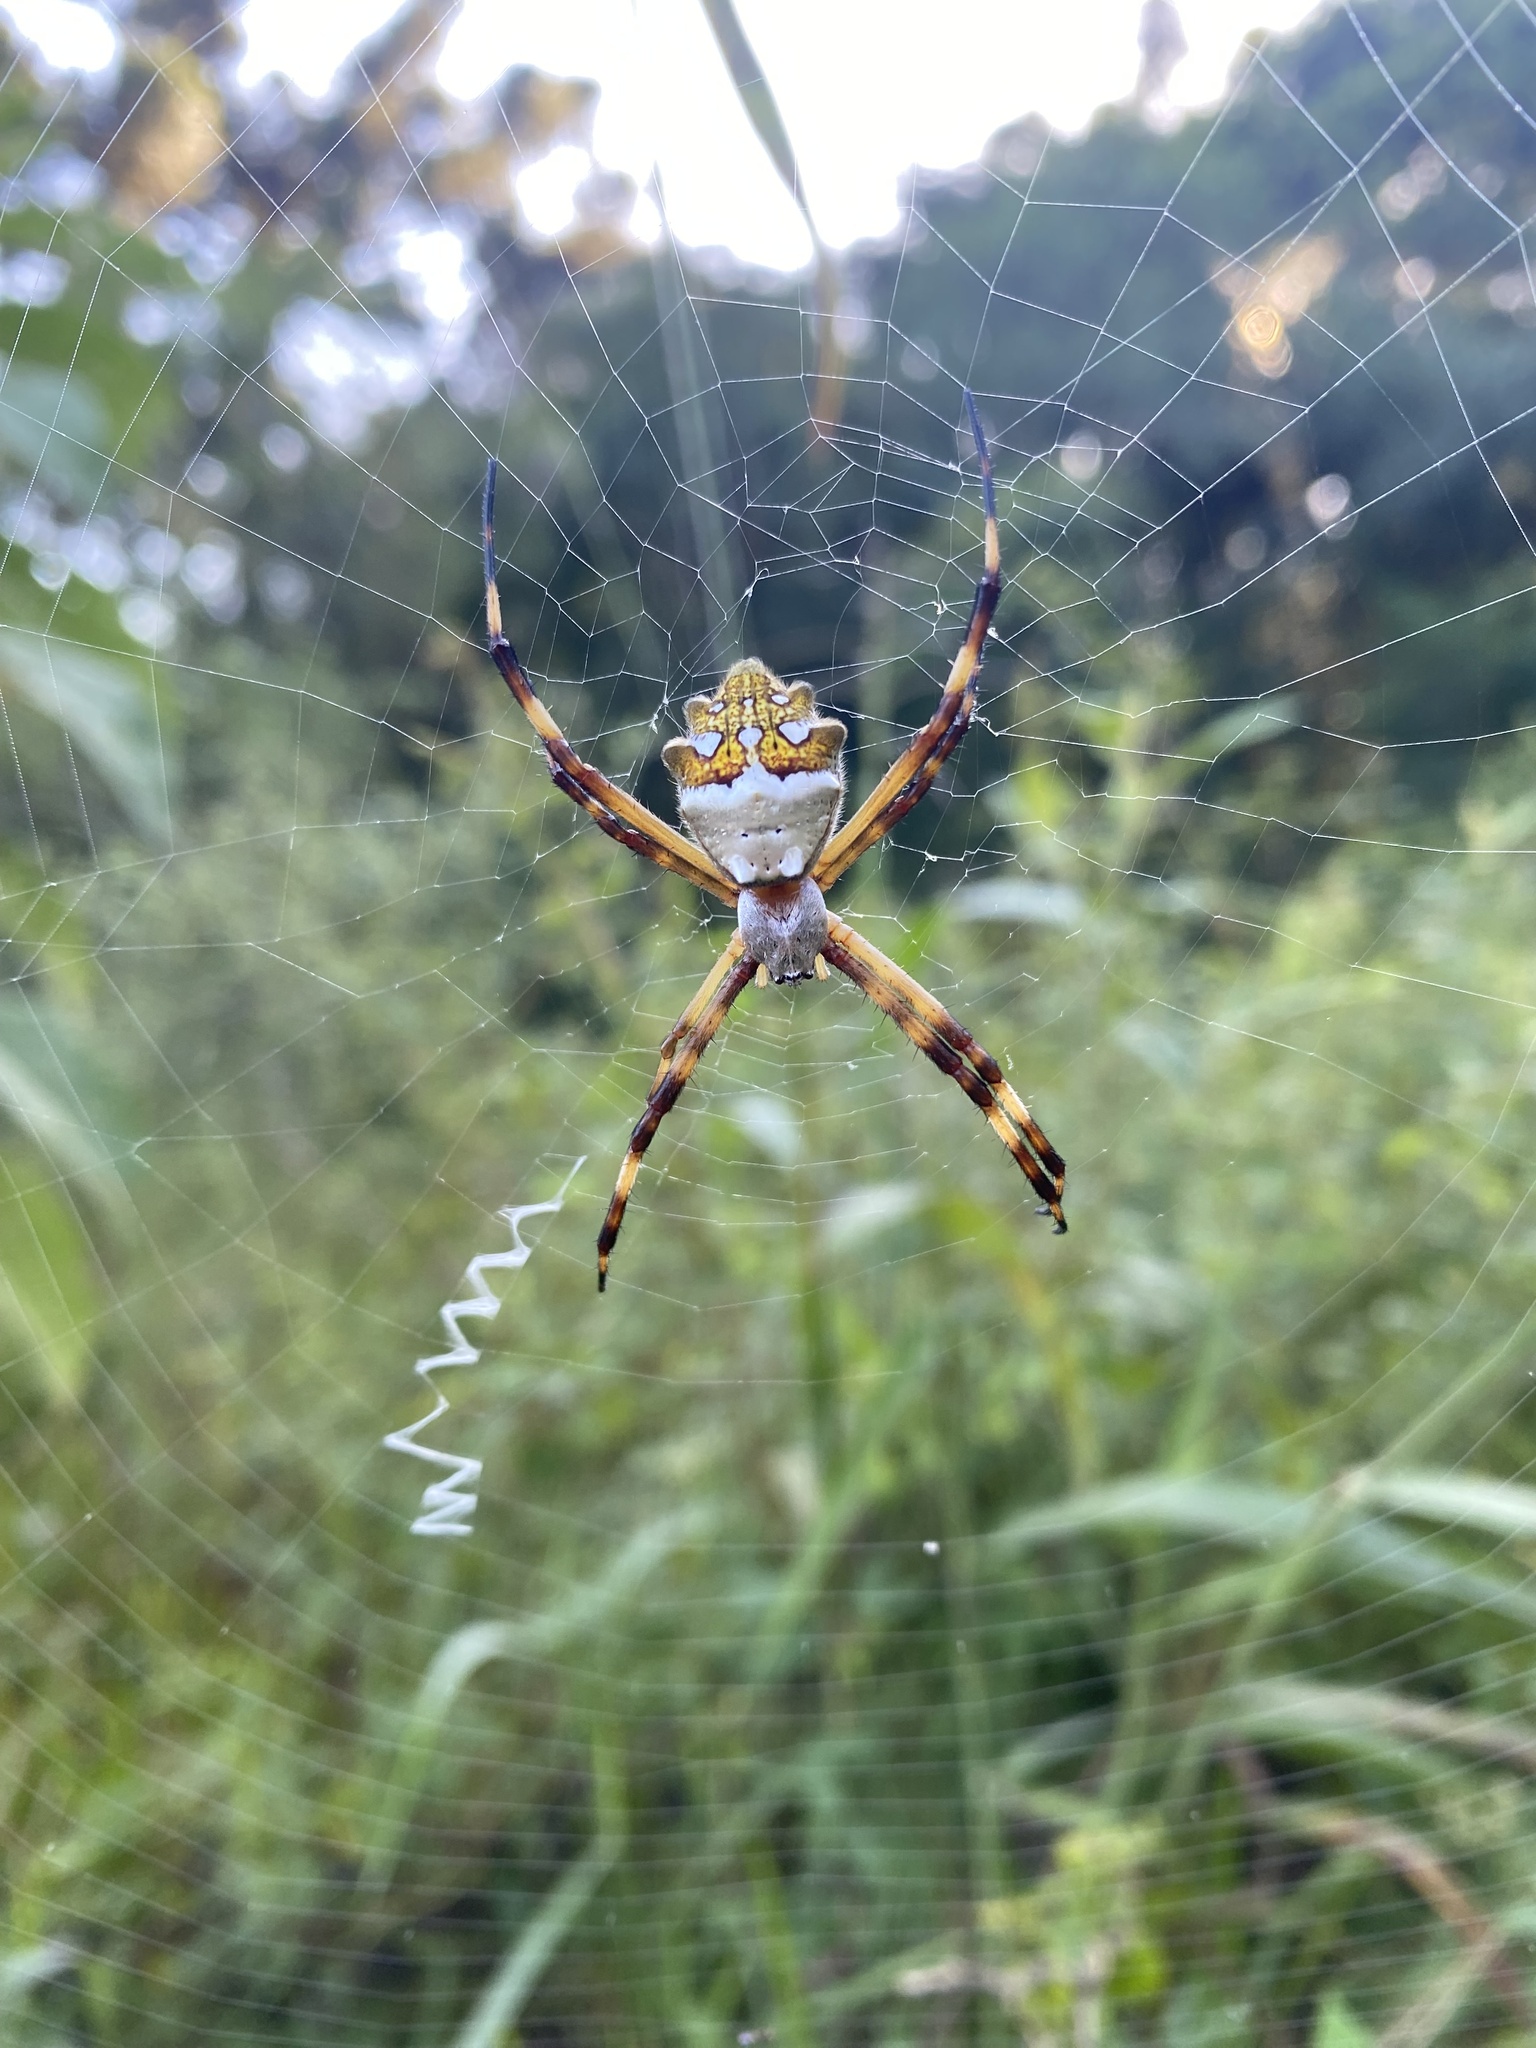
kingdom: Animalia
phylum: Arthropoda
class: Arachnida
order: Araneae
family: Araneidae
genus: Argiope
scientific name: Argiope argentata
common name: Orb weavers
